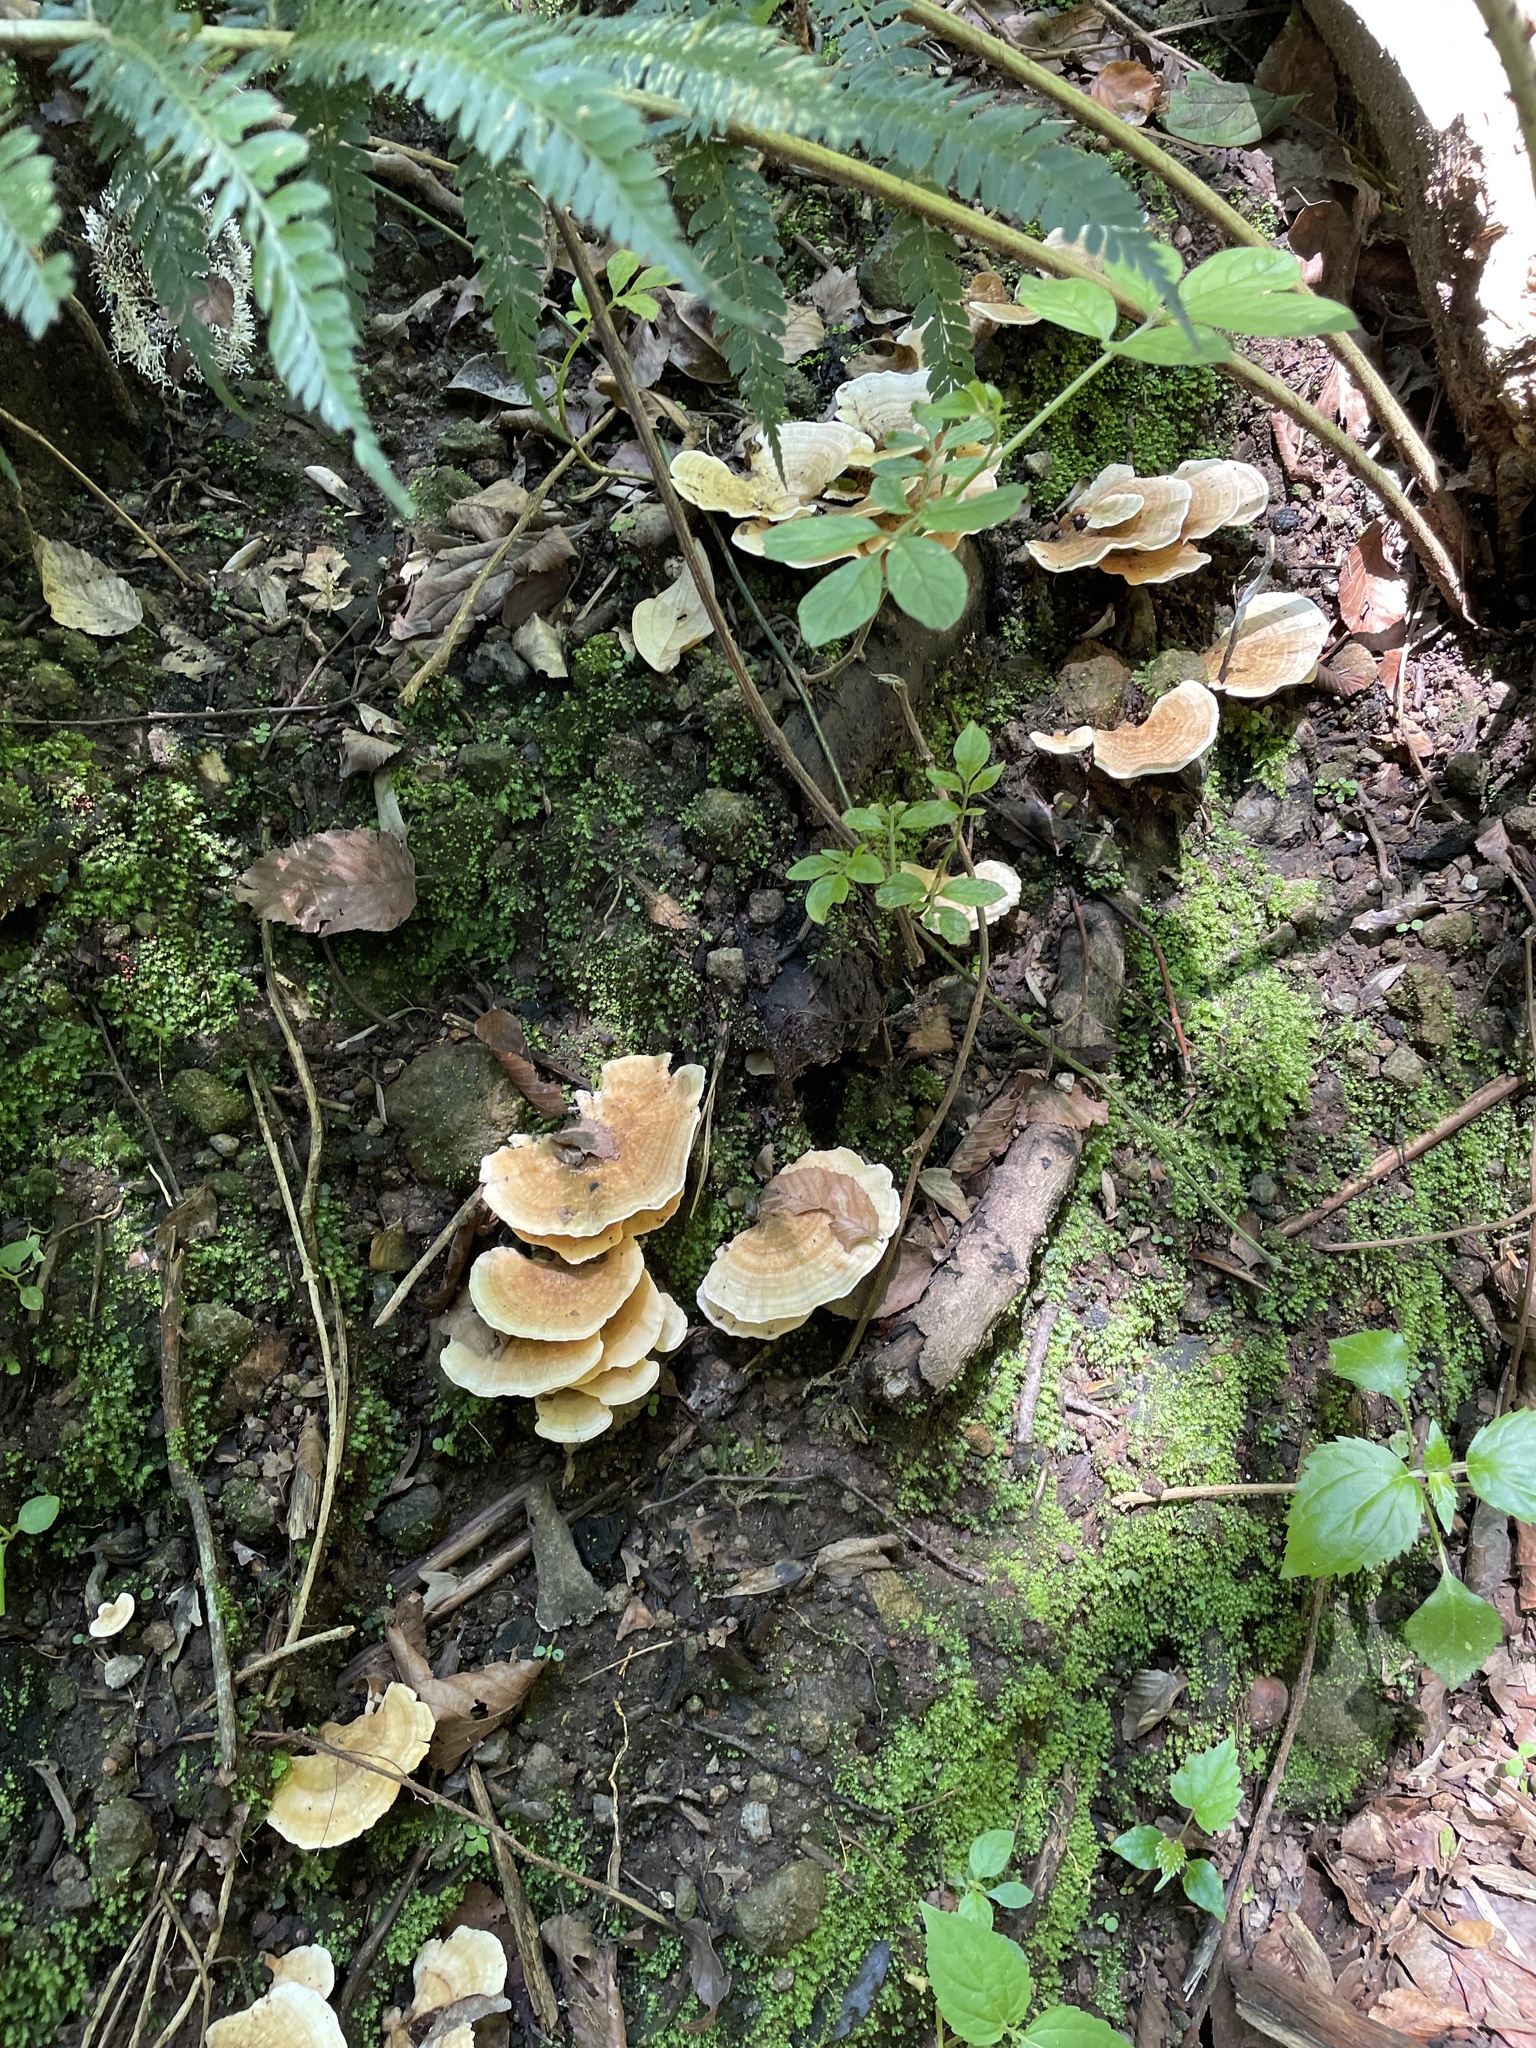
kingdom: Fungi
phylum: Basidiomycota
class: Agaricomycetes
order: Polyporales
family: Polyporaceae
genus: Trametes
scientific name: Trametes ochracea
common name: Ochre bracket
